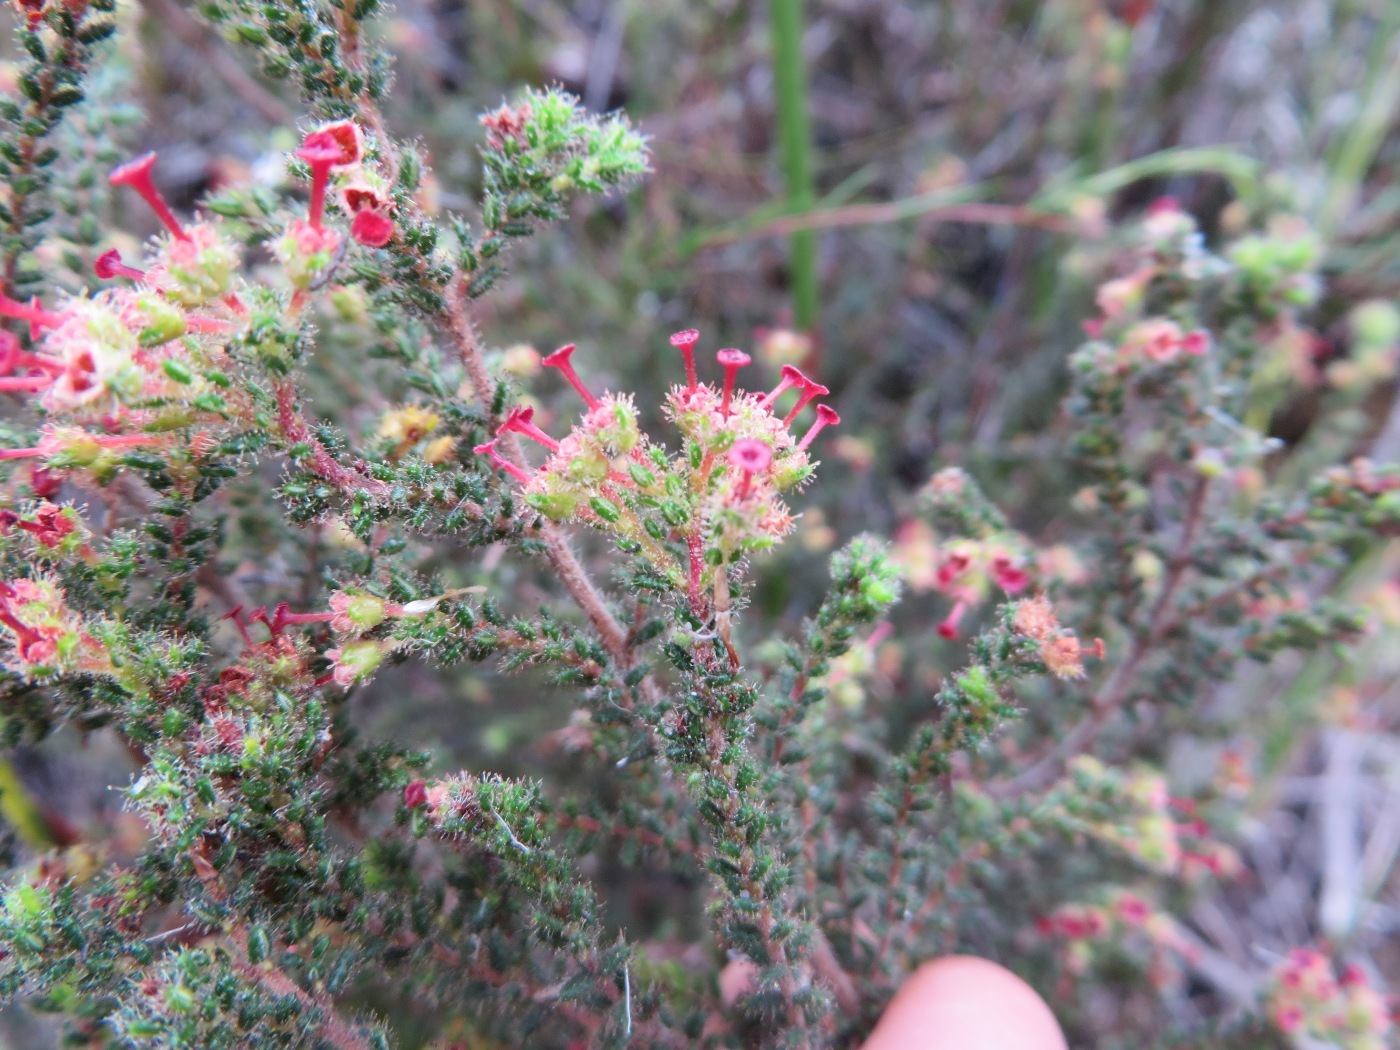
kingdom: Plantae
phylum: Tracheophyta
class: Magnoliopsida
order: Ericales
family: Ericaceae
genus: Erica
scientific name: Erica exleeana
